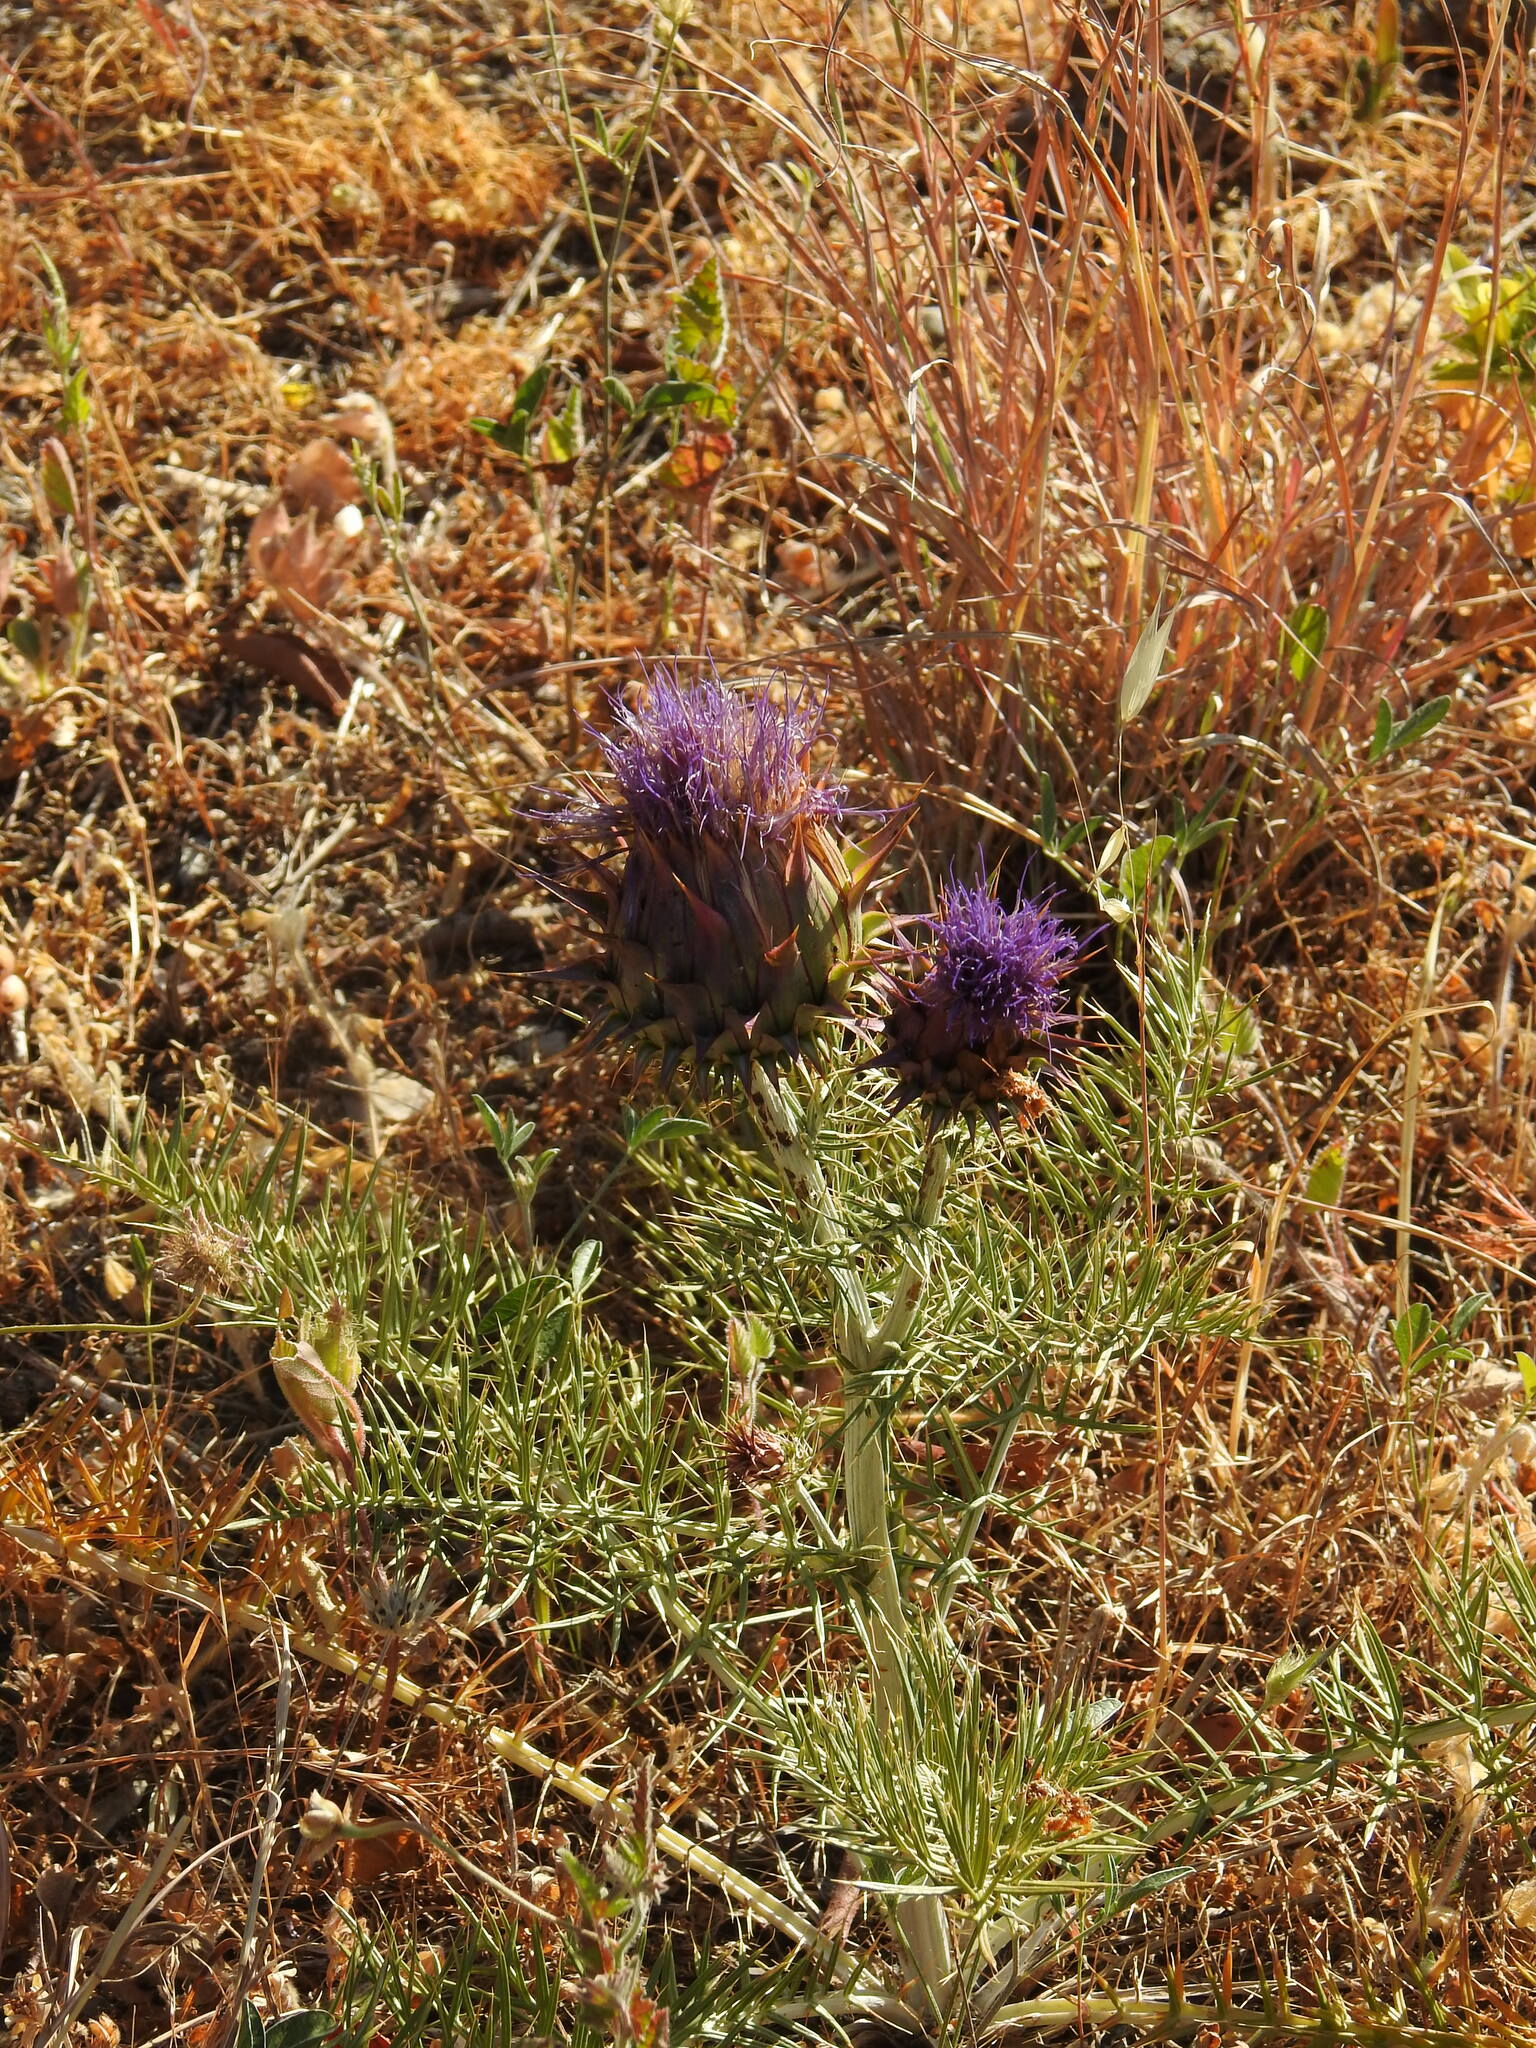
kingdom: Plantae
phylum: Tracheophyta
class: Magnoliopsida
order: Asterales
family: Asteraceae
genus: Cynara
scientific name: Cynara humilis
